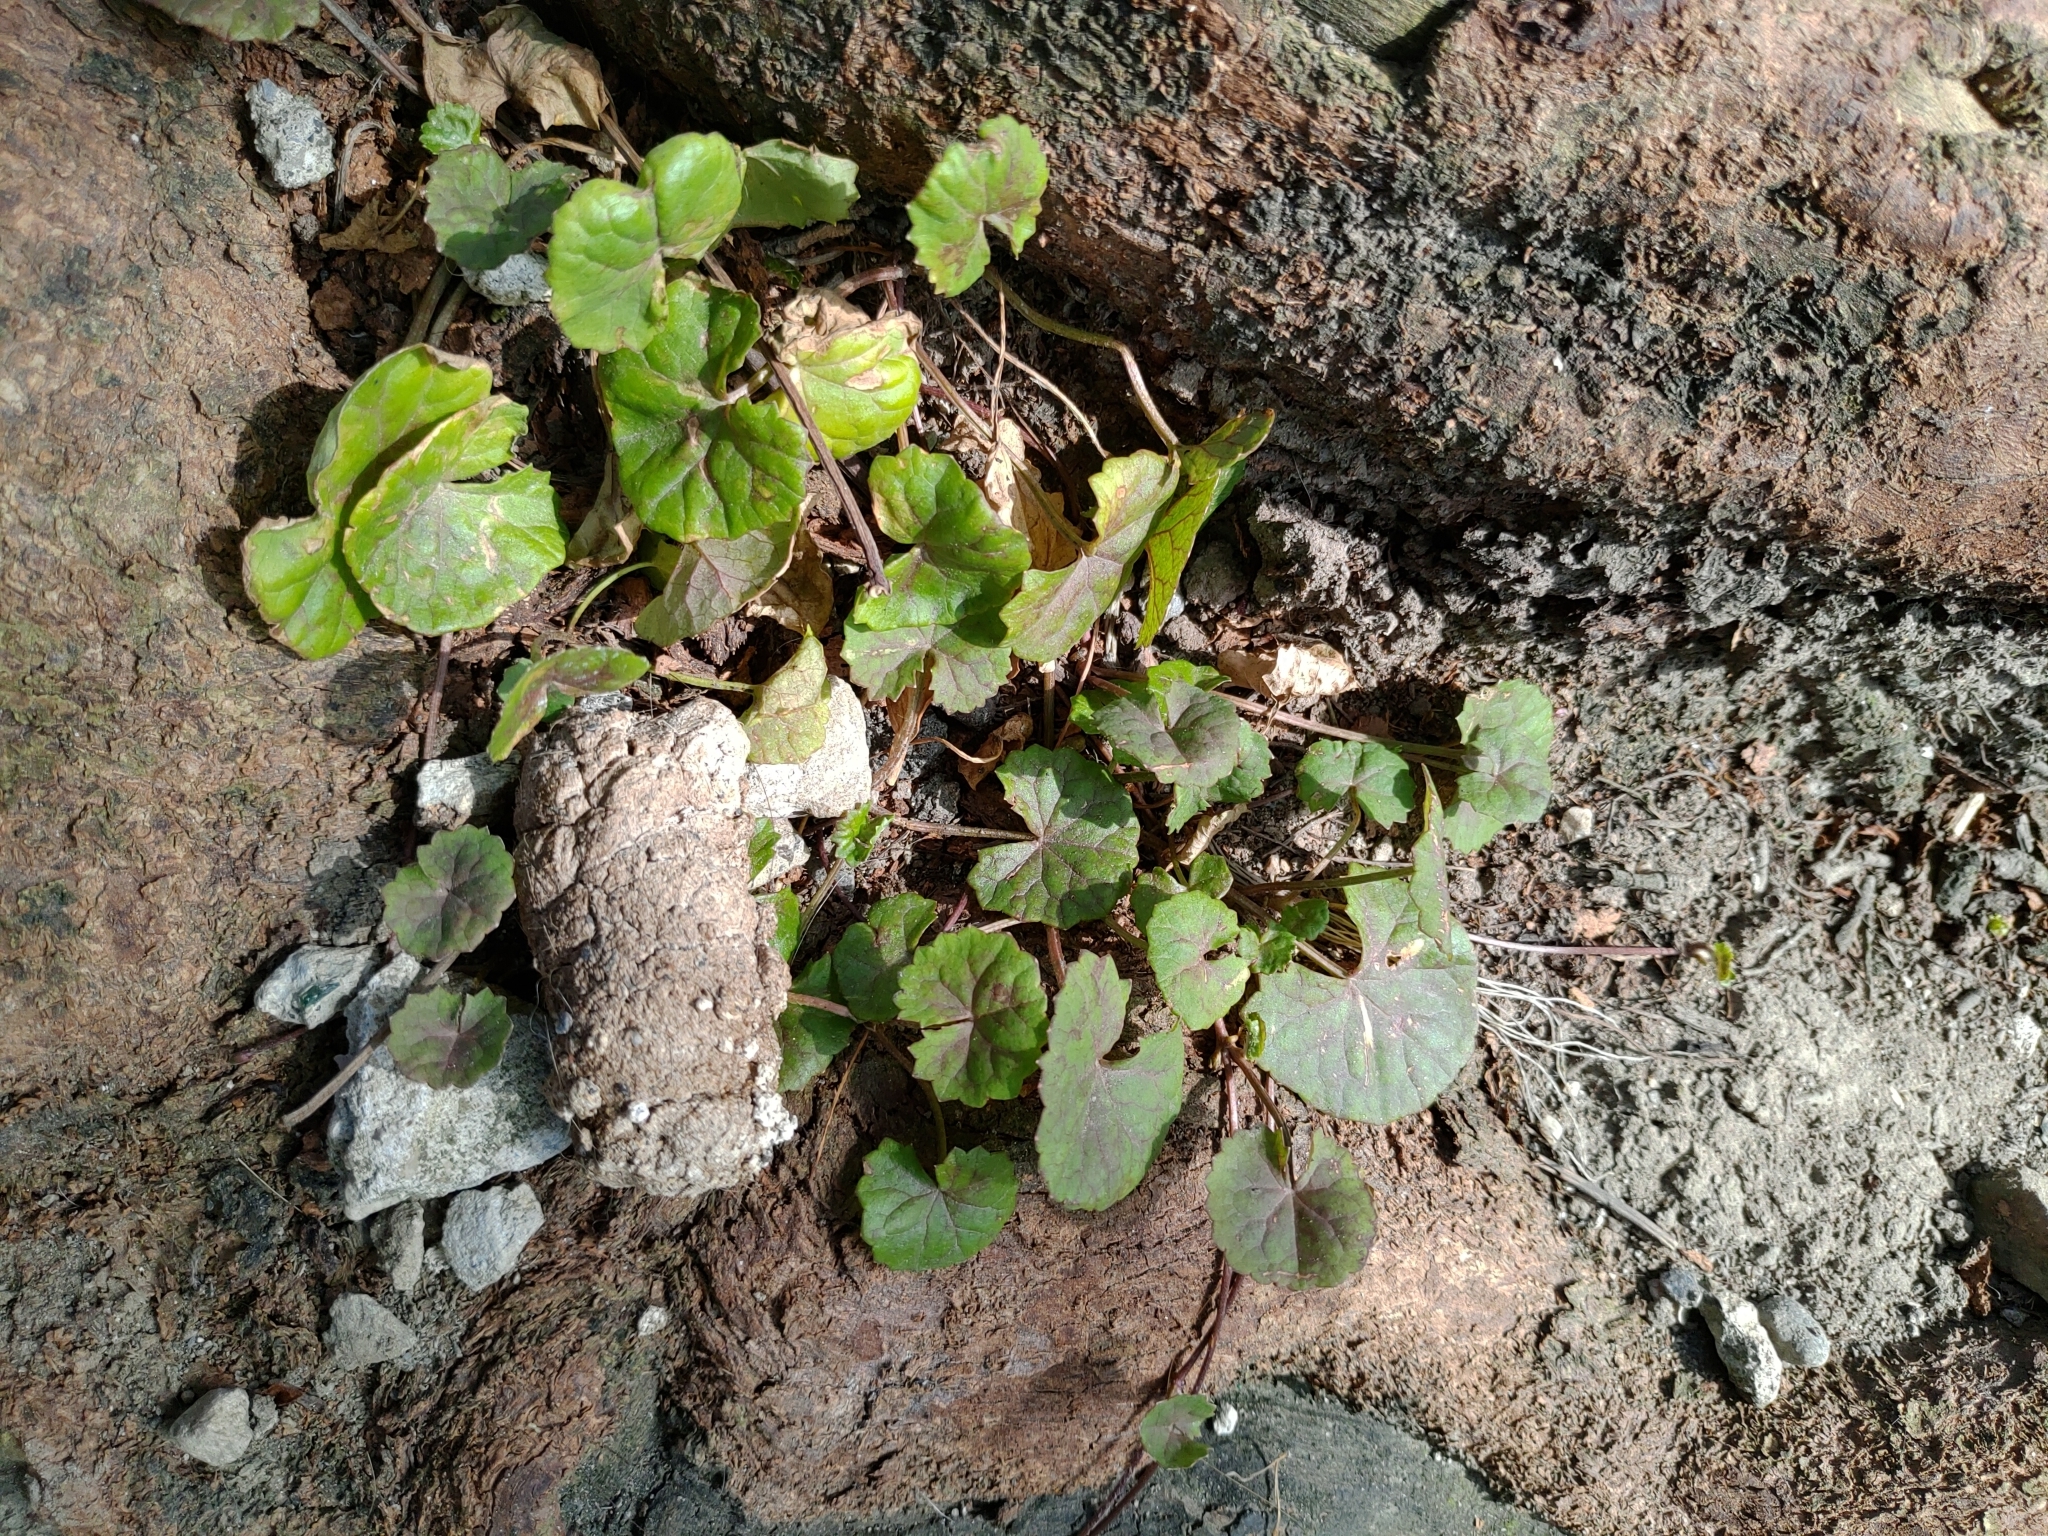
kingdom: Plantae
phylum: Tracheophyta
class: Magnoliopsida
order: Apiales
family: Apiaceae
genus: Centella
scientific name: Centella asiatica
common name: Spadeleaf
